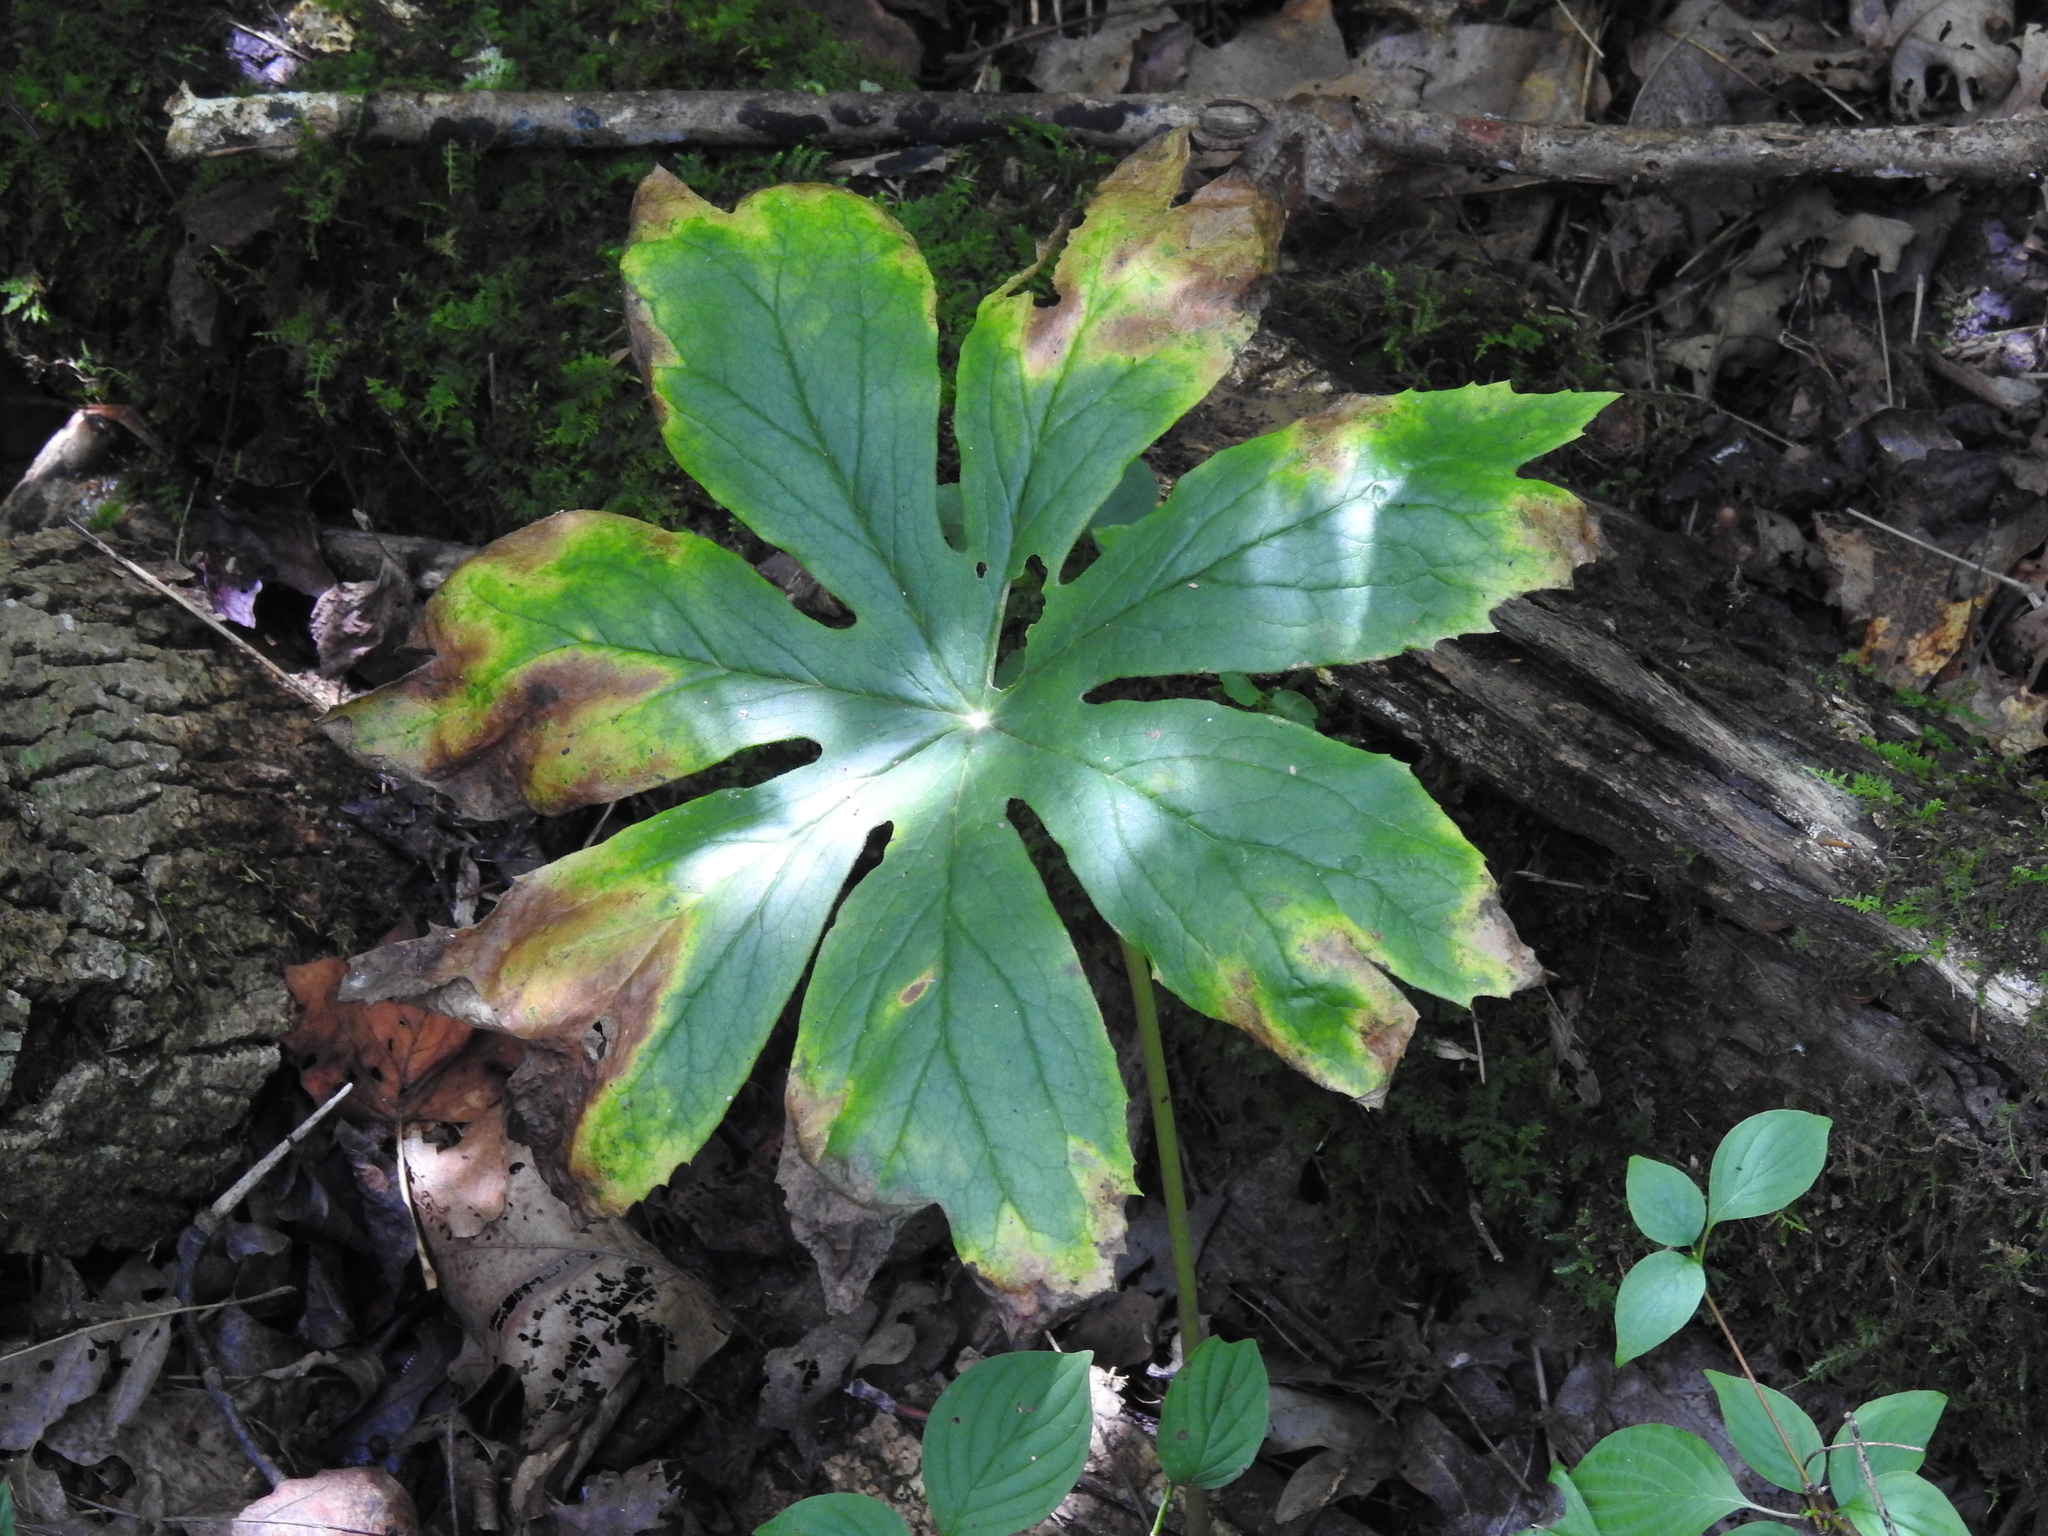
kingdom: Plantae
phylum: Tracheophyta
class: Magnoliopsida
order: Ranunculales
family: Berberidaceae
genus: Podophyllum
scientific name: Podophyllum peltatum
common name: Wild mandrake
